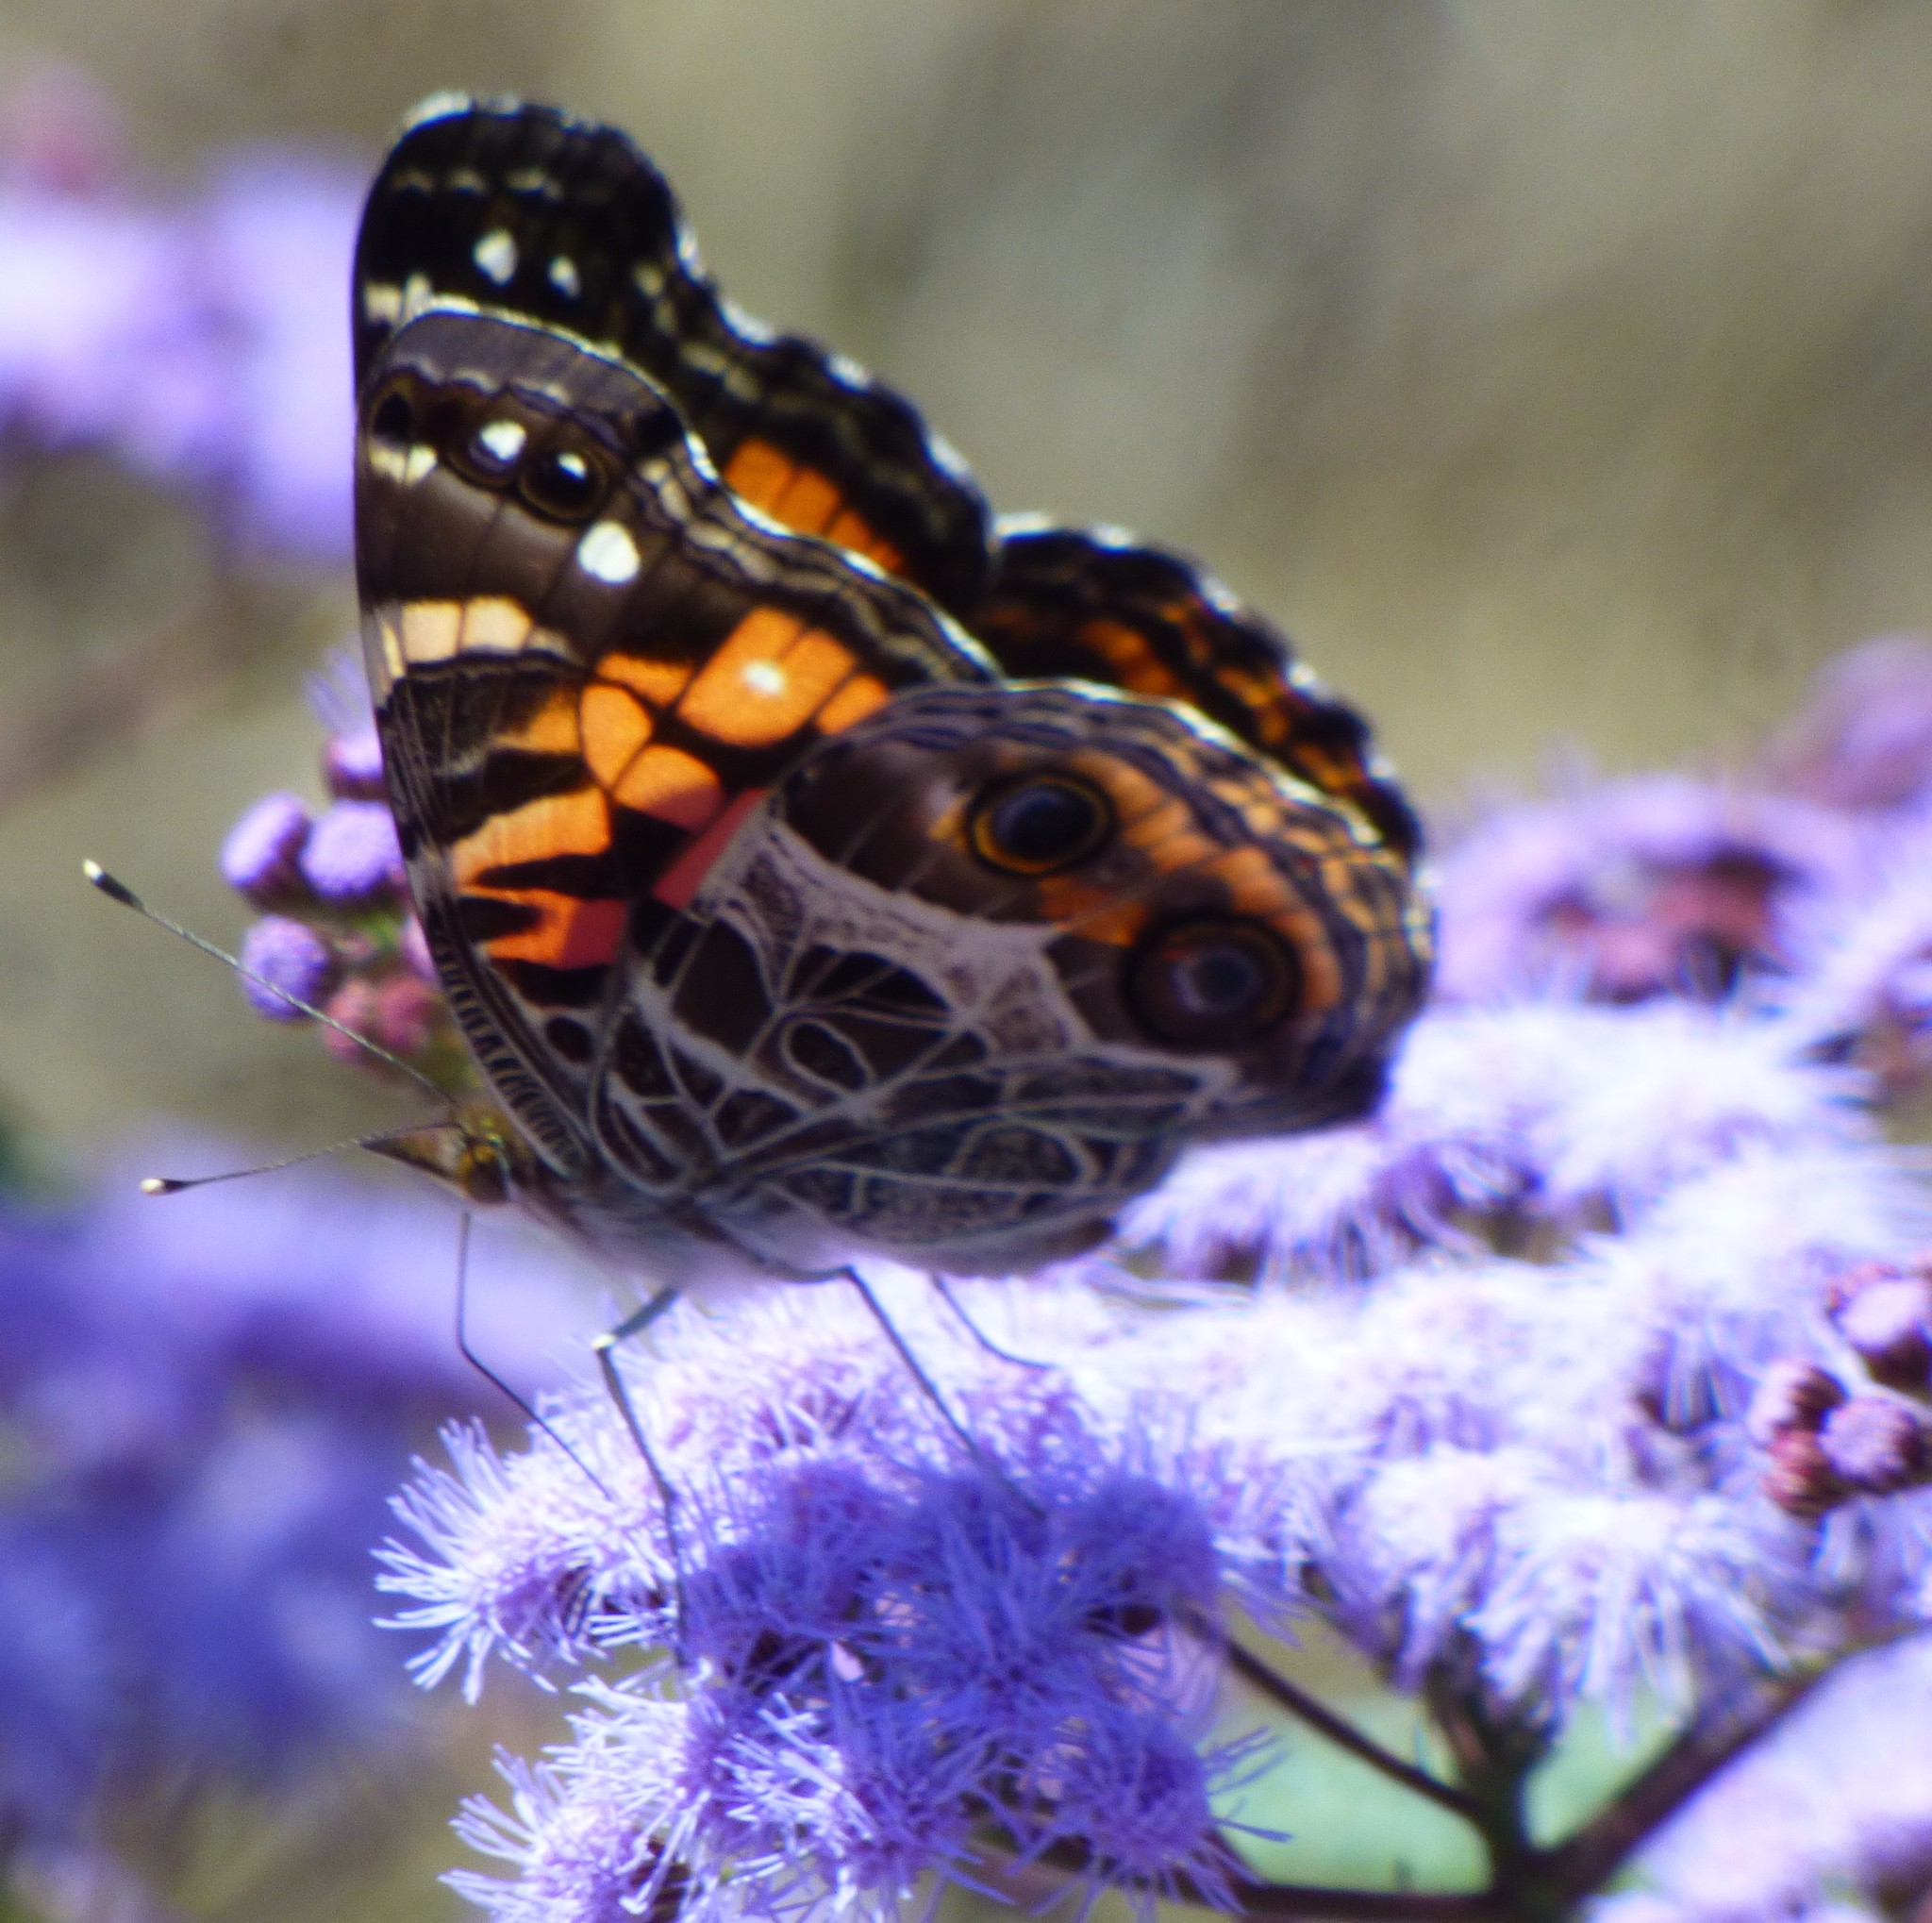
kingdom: Animalia
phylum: Arthropoda
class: Insecta
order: Lepidoptera
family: Nymphalidae
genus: Vanessa
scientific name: Vanessa virginiensis
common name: American lady
